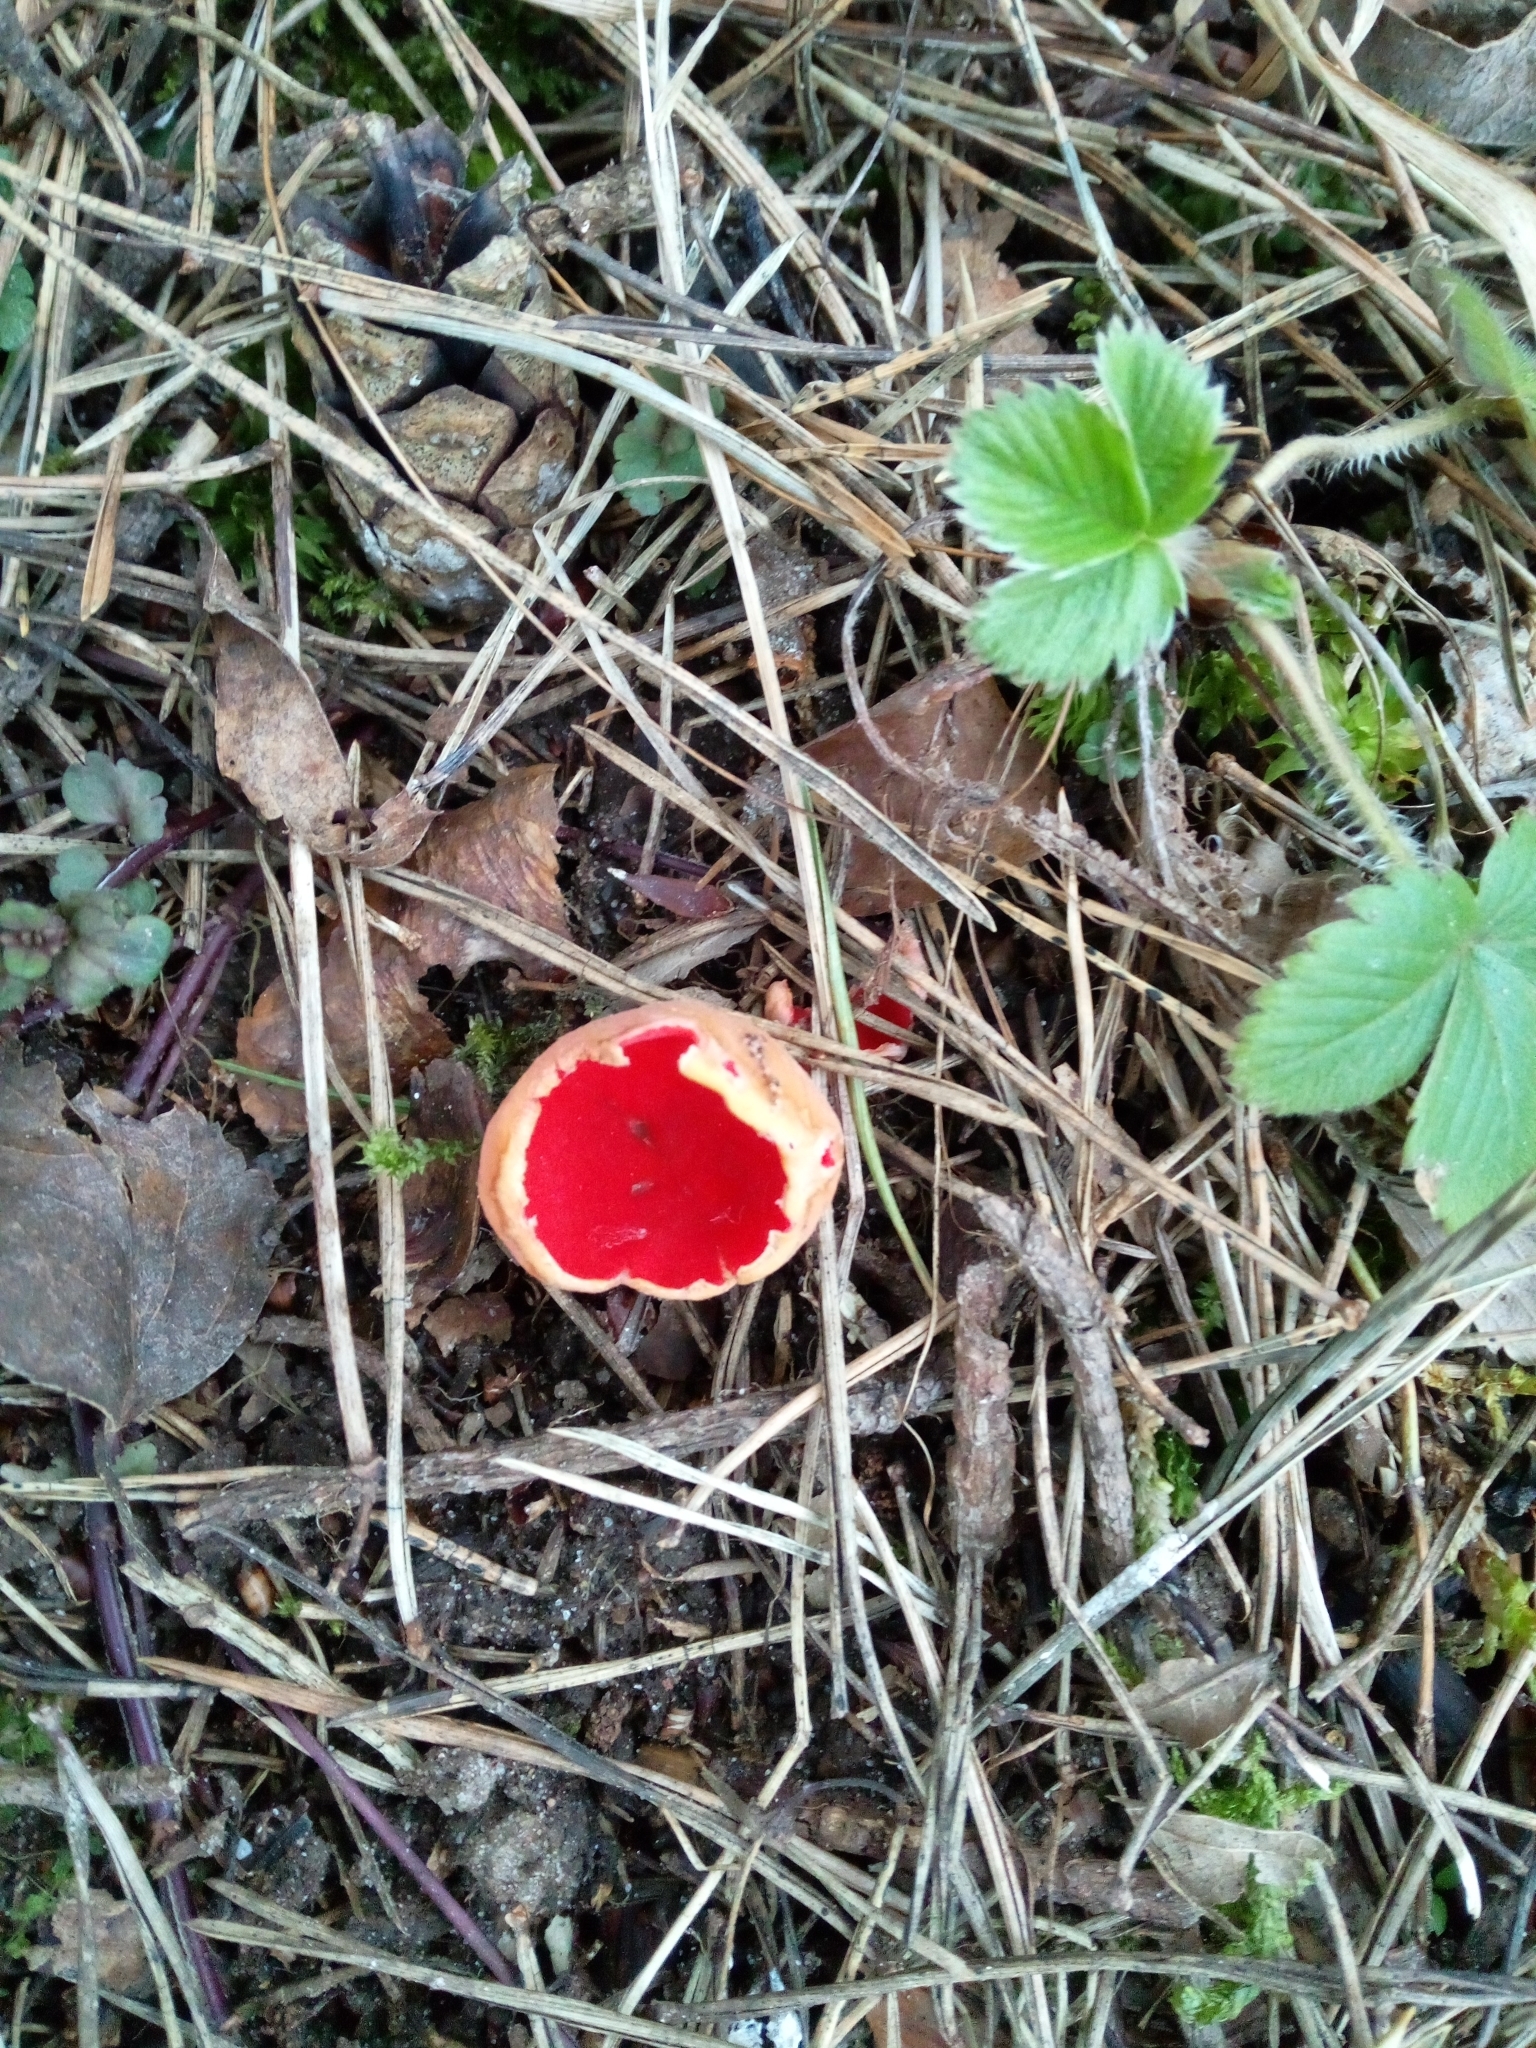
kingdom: Fungi
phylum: Ascomycota
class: Pezizomycetes
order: Pezizales
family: Sarcoscyphaceae
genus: Sarcoscypha
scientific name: Sarcoscypha
